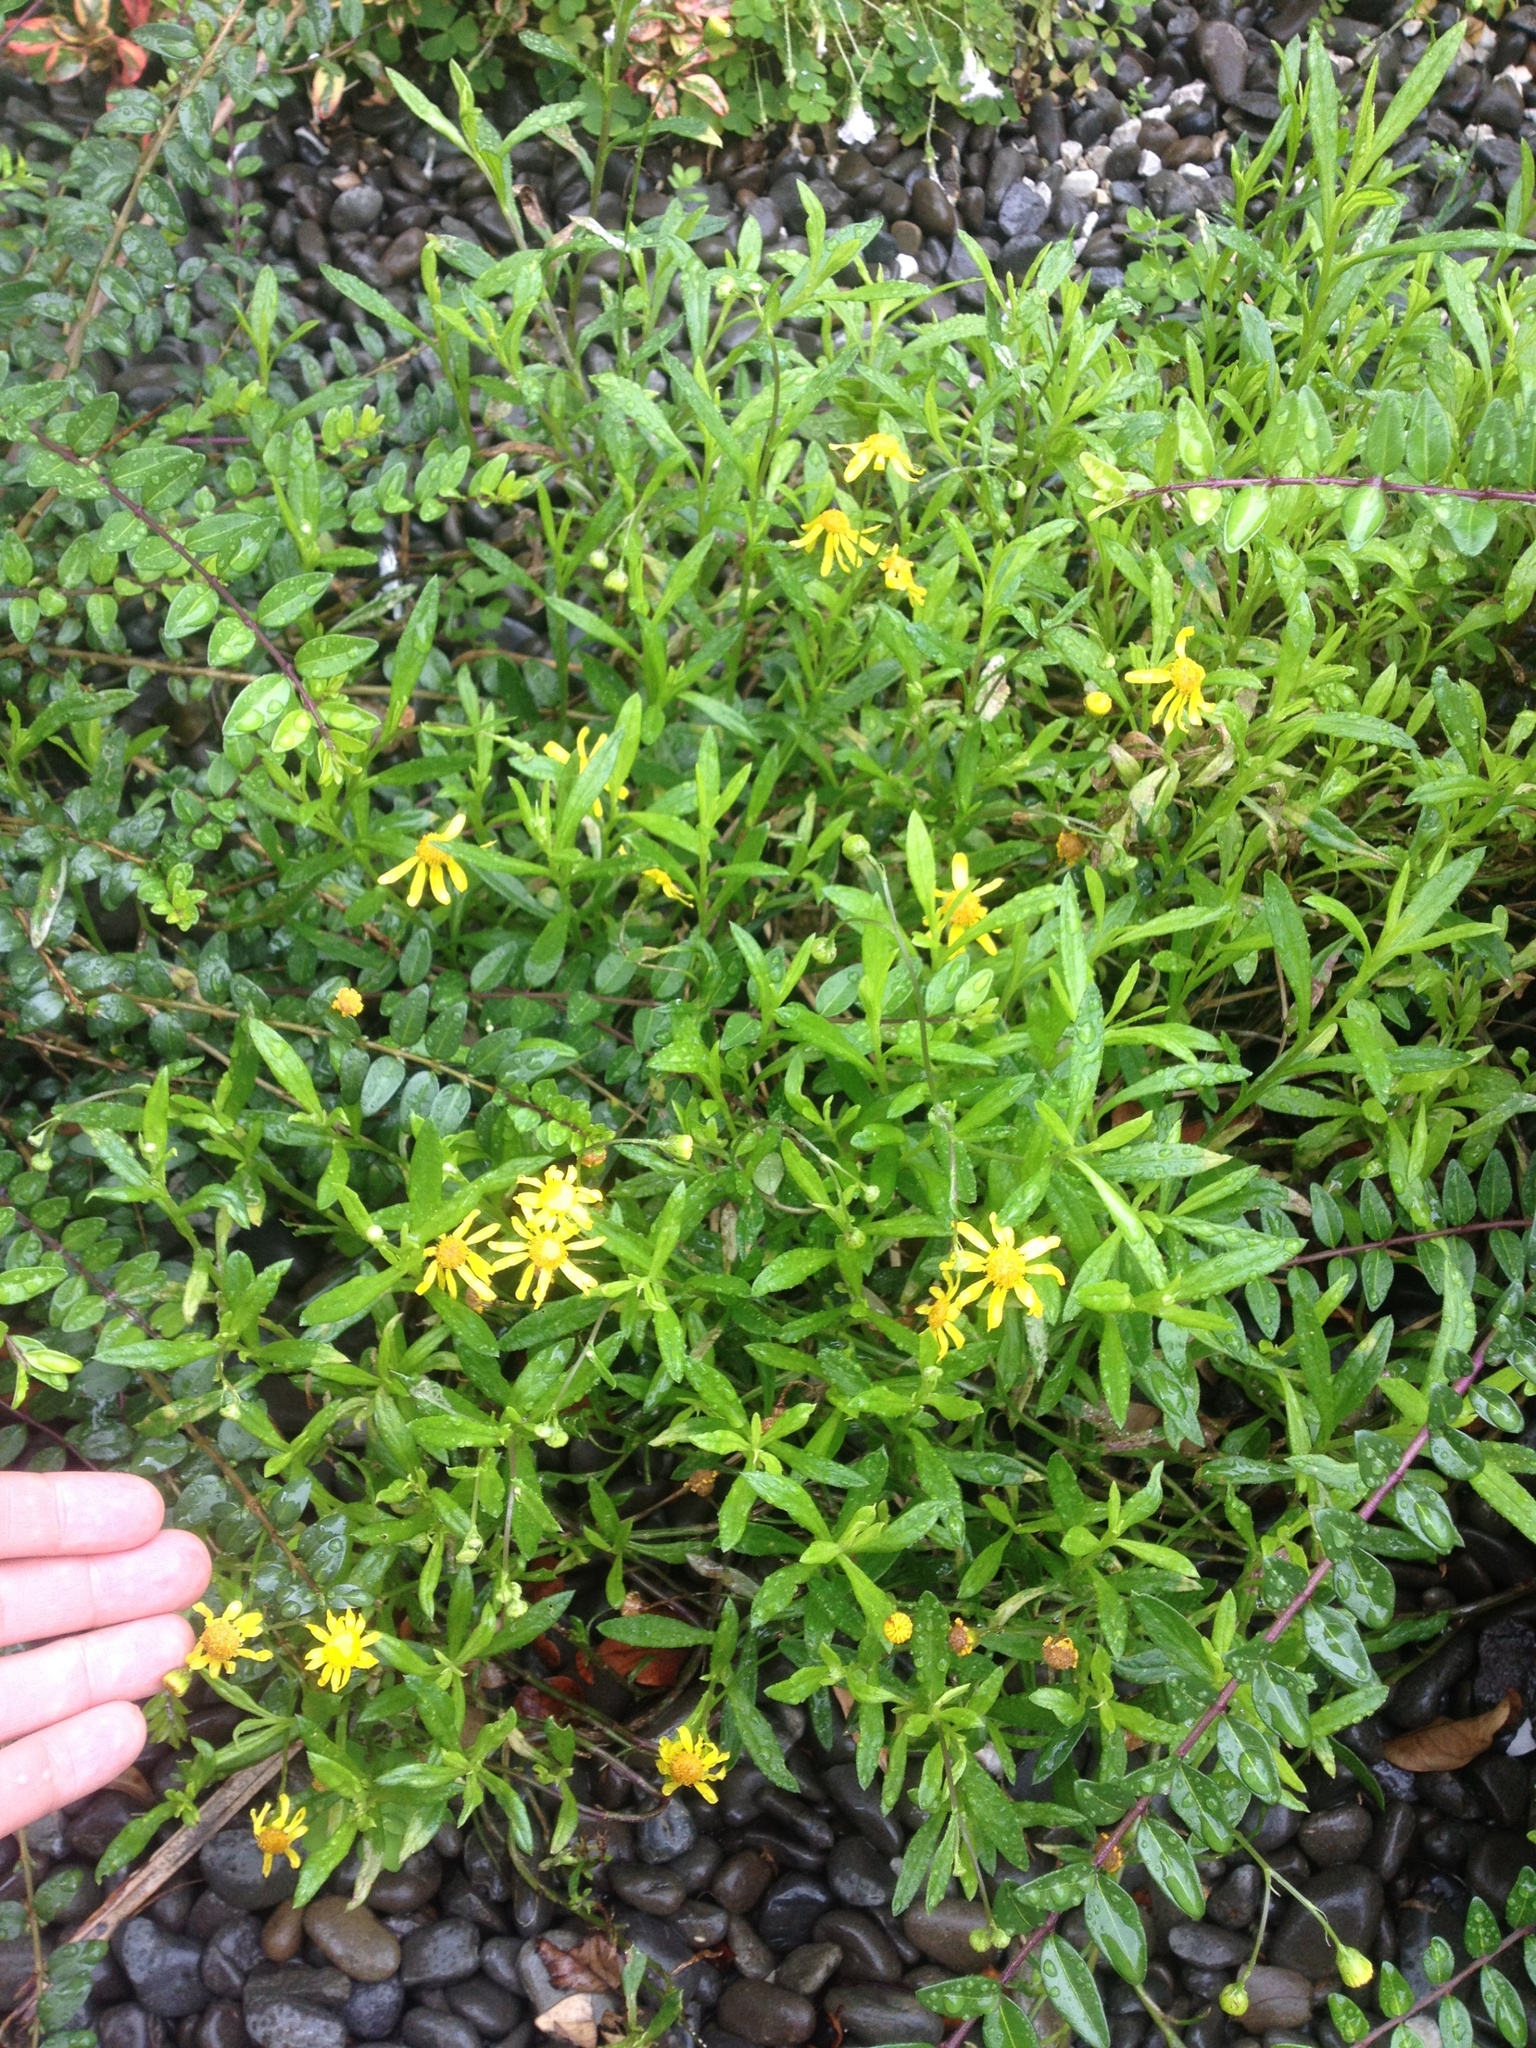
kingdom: Plantae
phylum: Tracheophyta
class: Magnoliopsida
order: Asterales
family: Asteraceae
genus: Senecio
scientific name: Senecio skirrhodon
